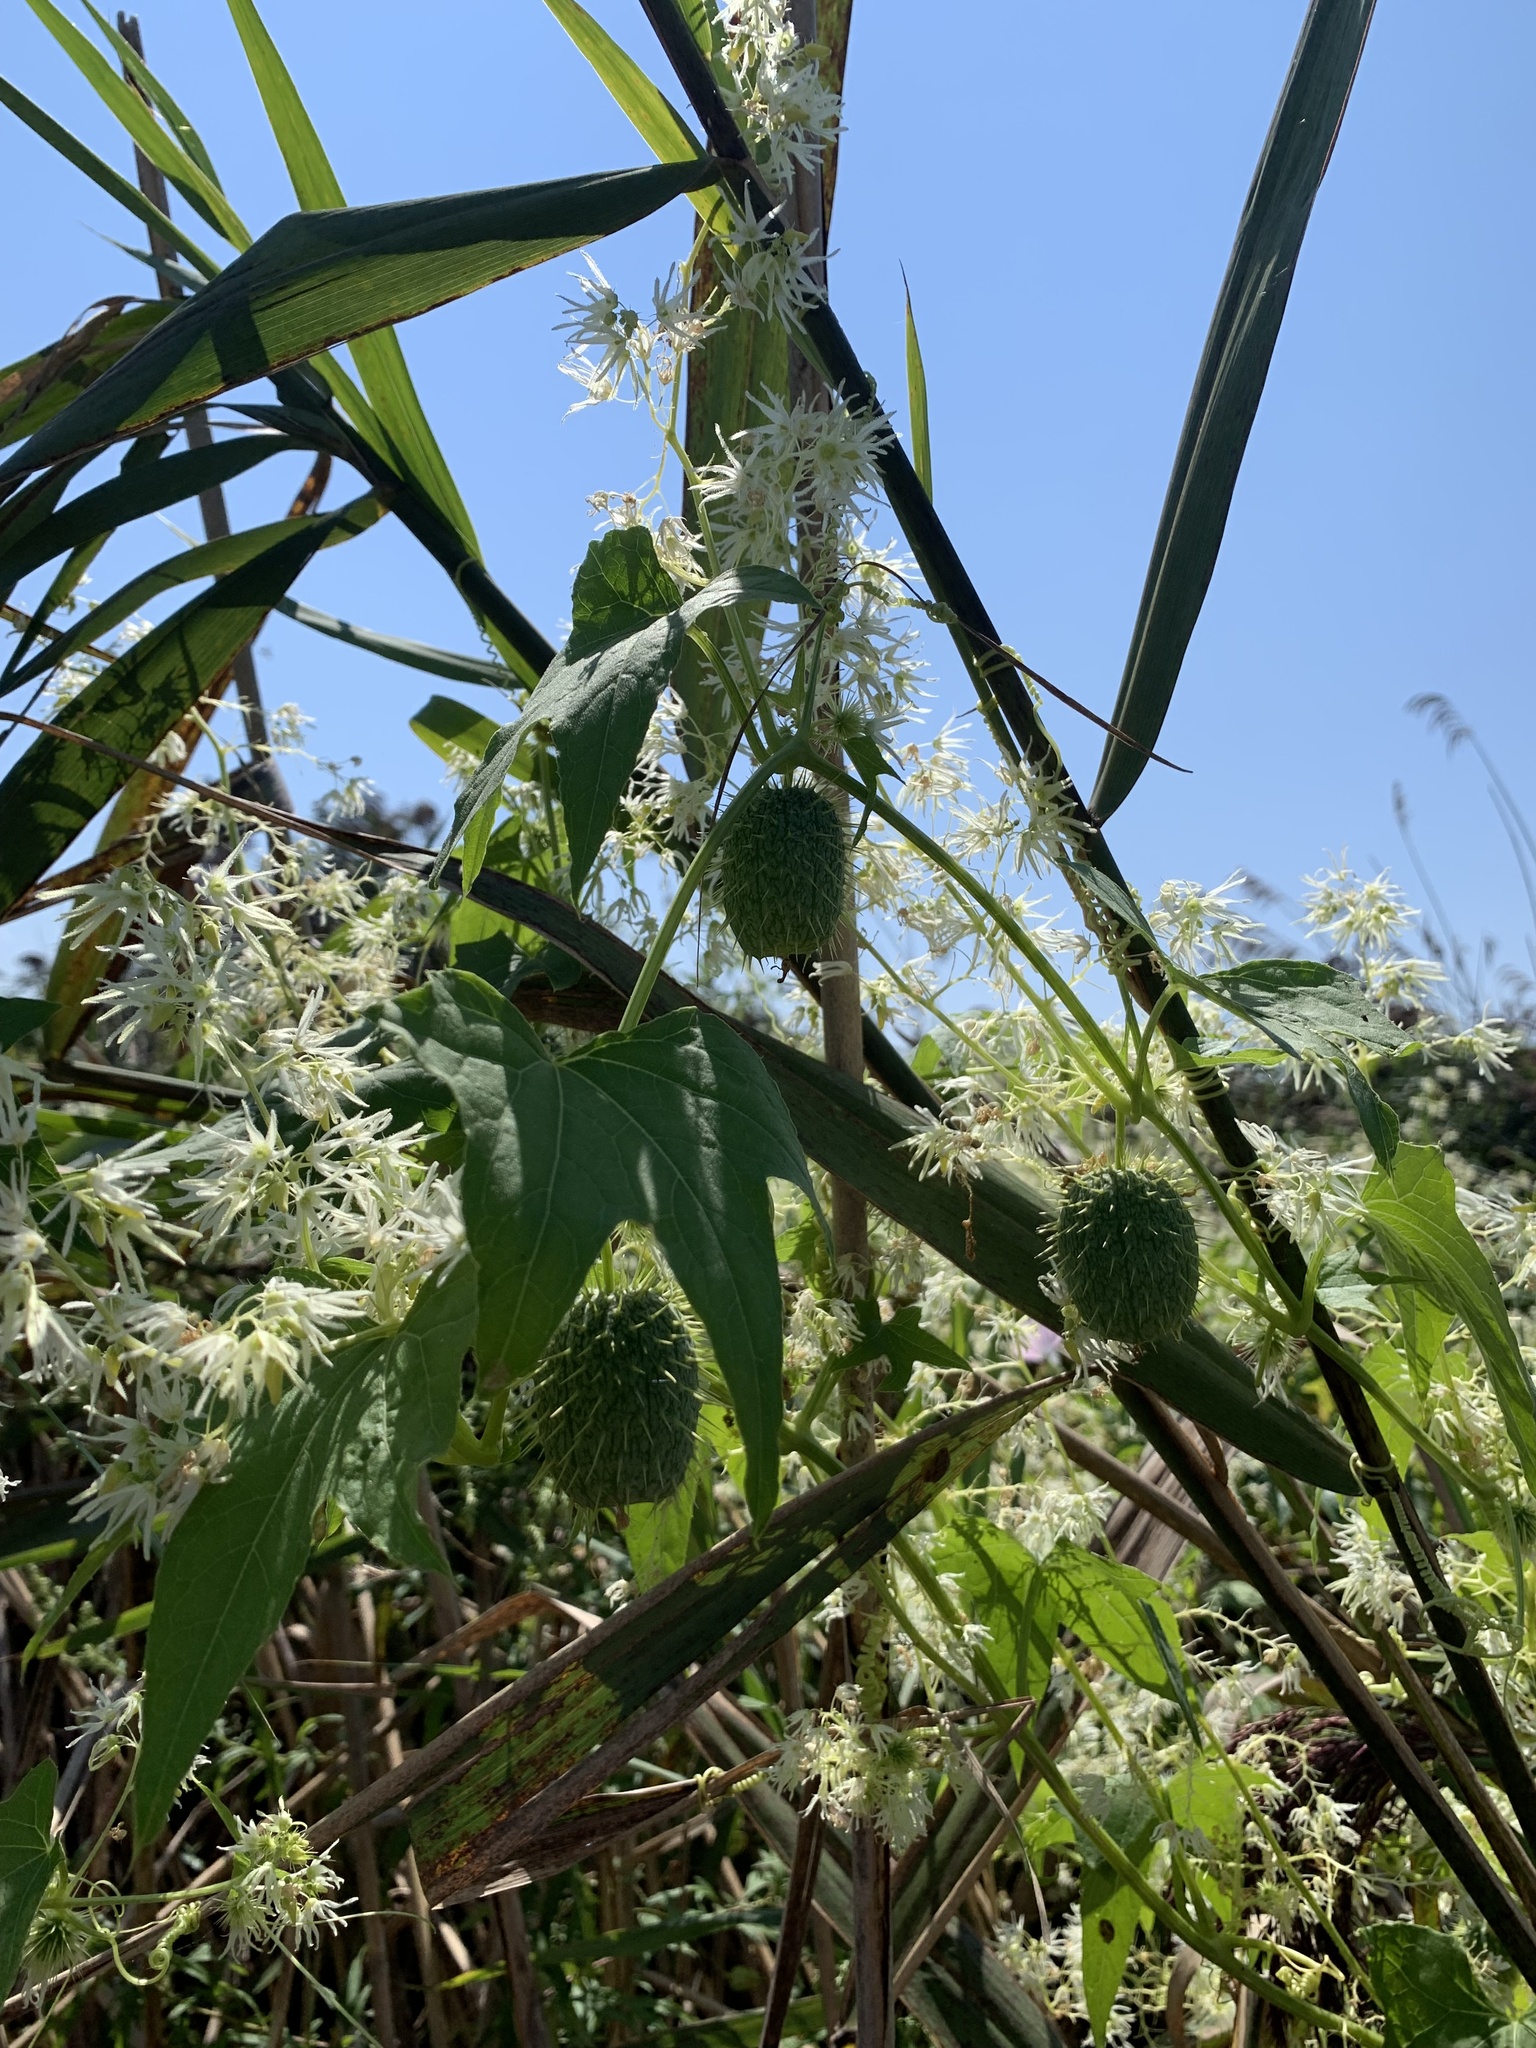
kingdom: Plantae
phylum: Tracheophyta
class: Magnoliopsida
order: Cucurbitales
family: Cucurbitaceae
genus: Echinocystis
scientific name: Echinocystis lobata
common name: Wild cucumber
